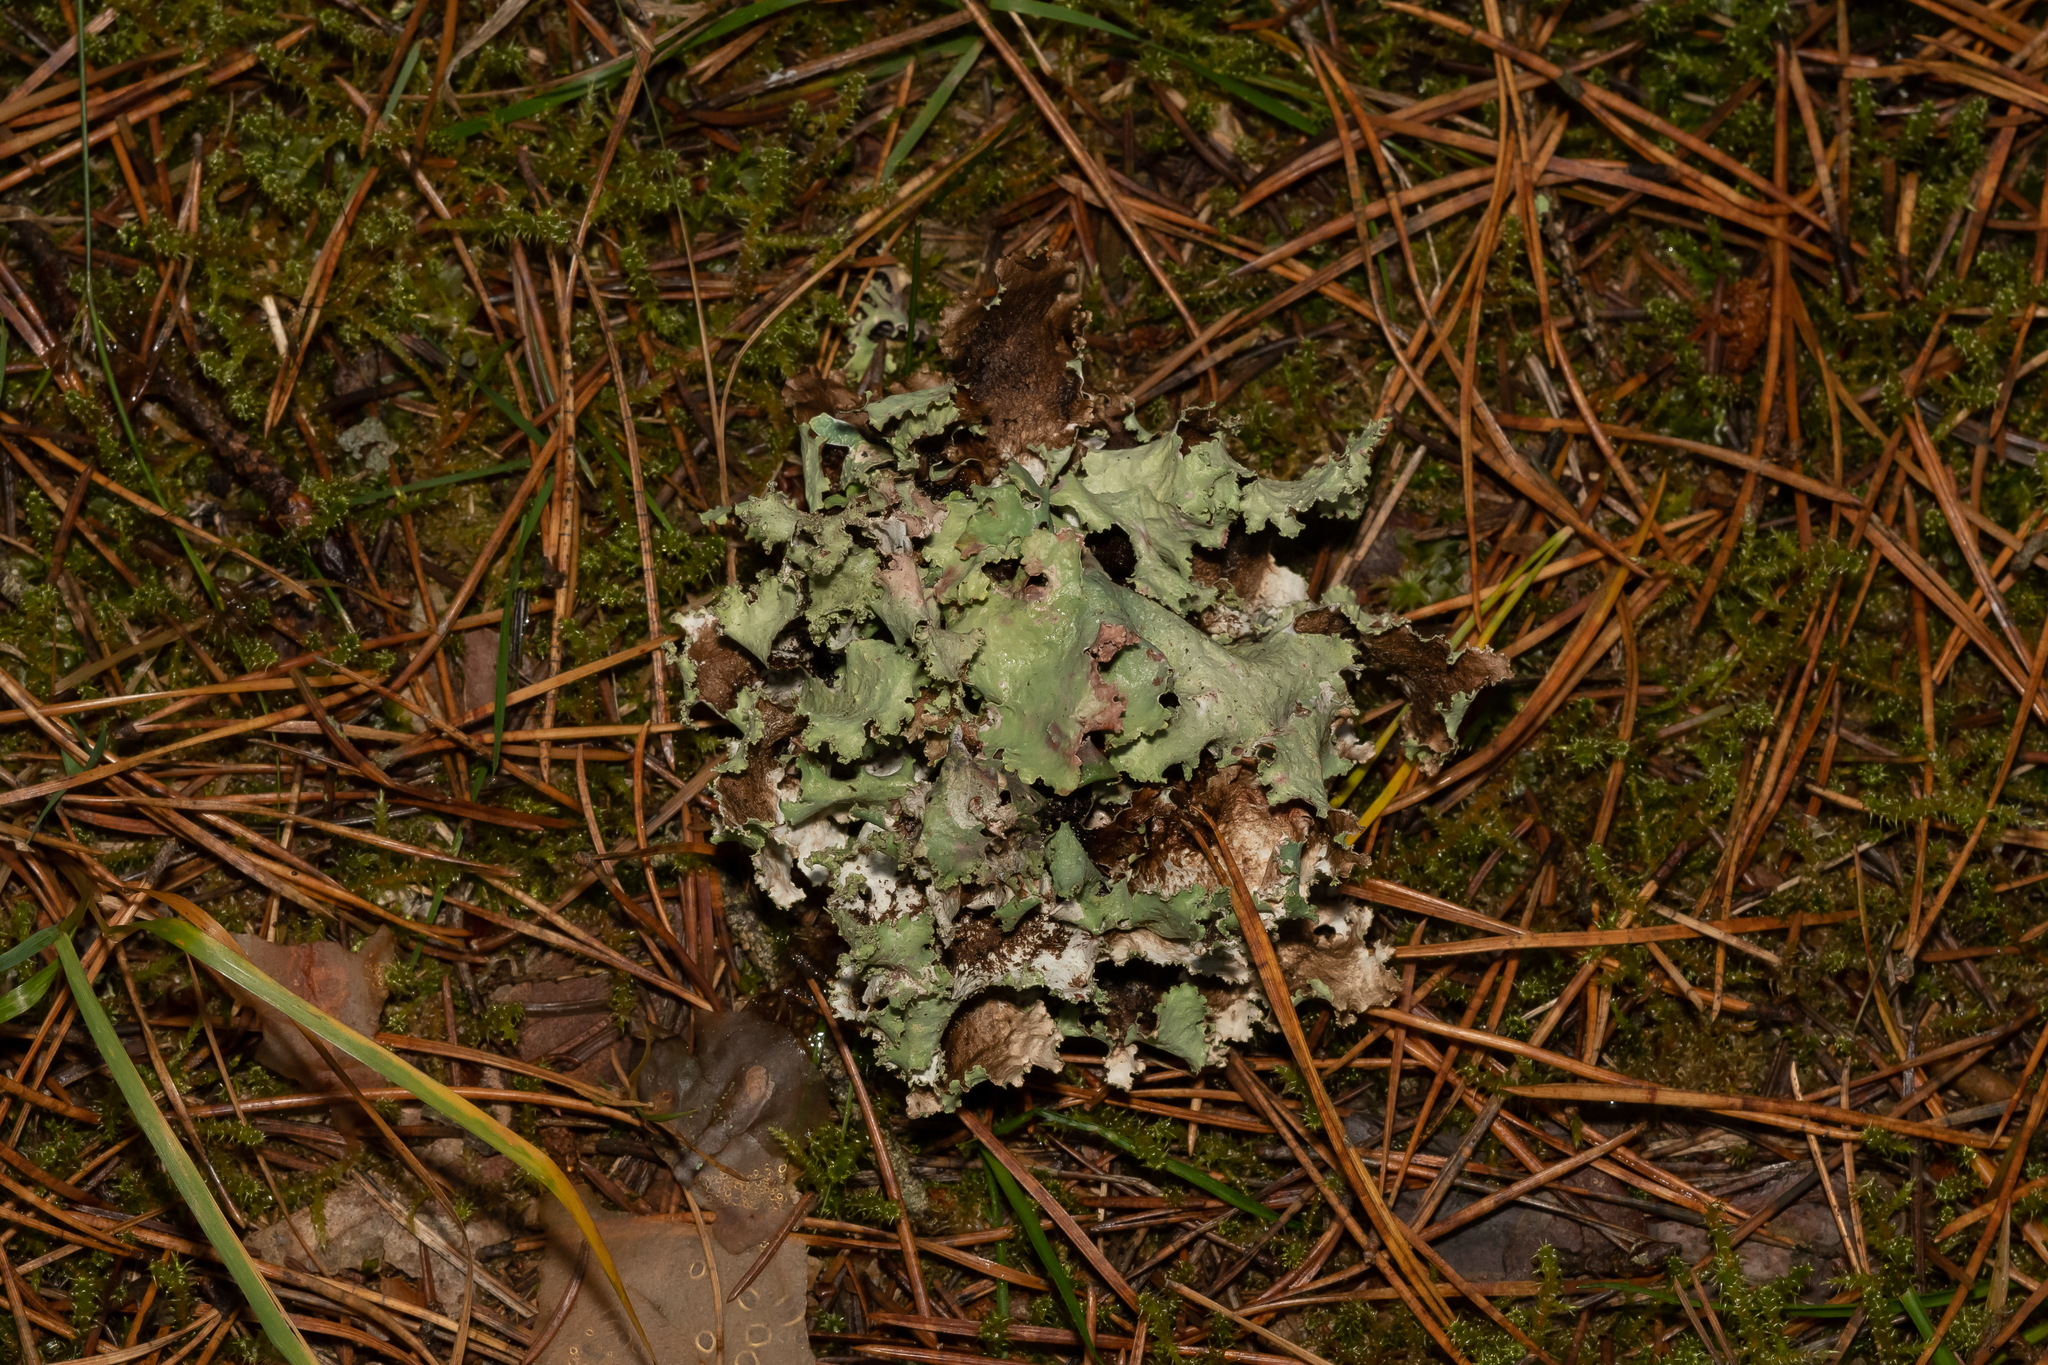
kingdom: Fungi
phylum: Ascomycota
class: Lecanoromycetes
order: Lecanorales
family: Parmeliaceae
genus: Platismatia
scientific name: Platismatia glauca
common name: Varied rag lichen
